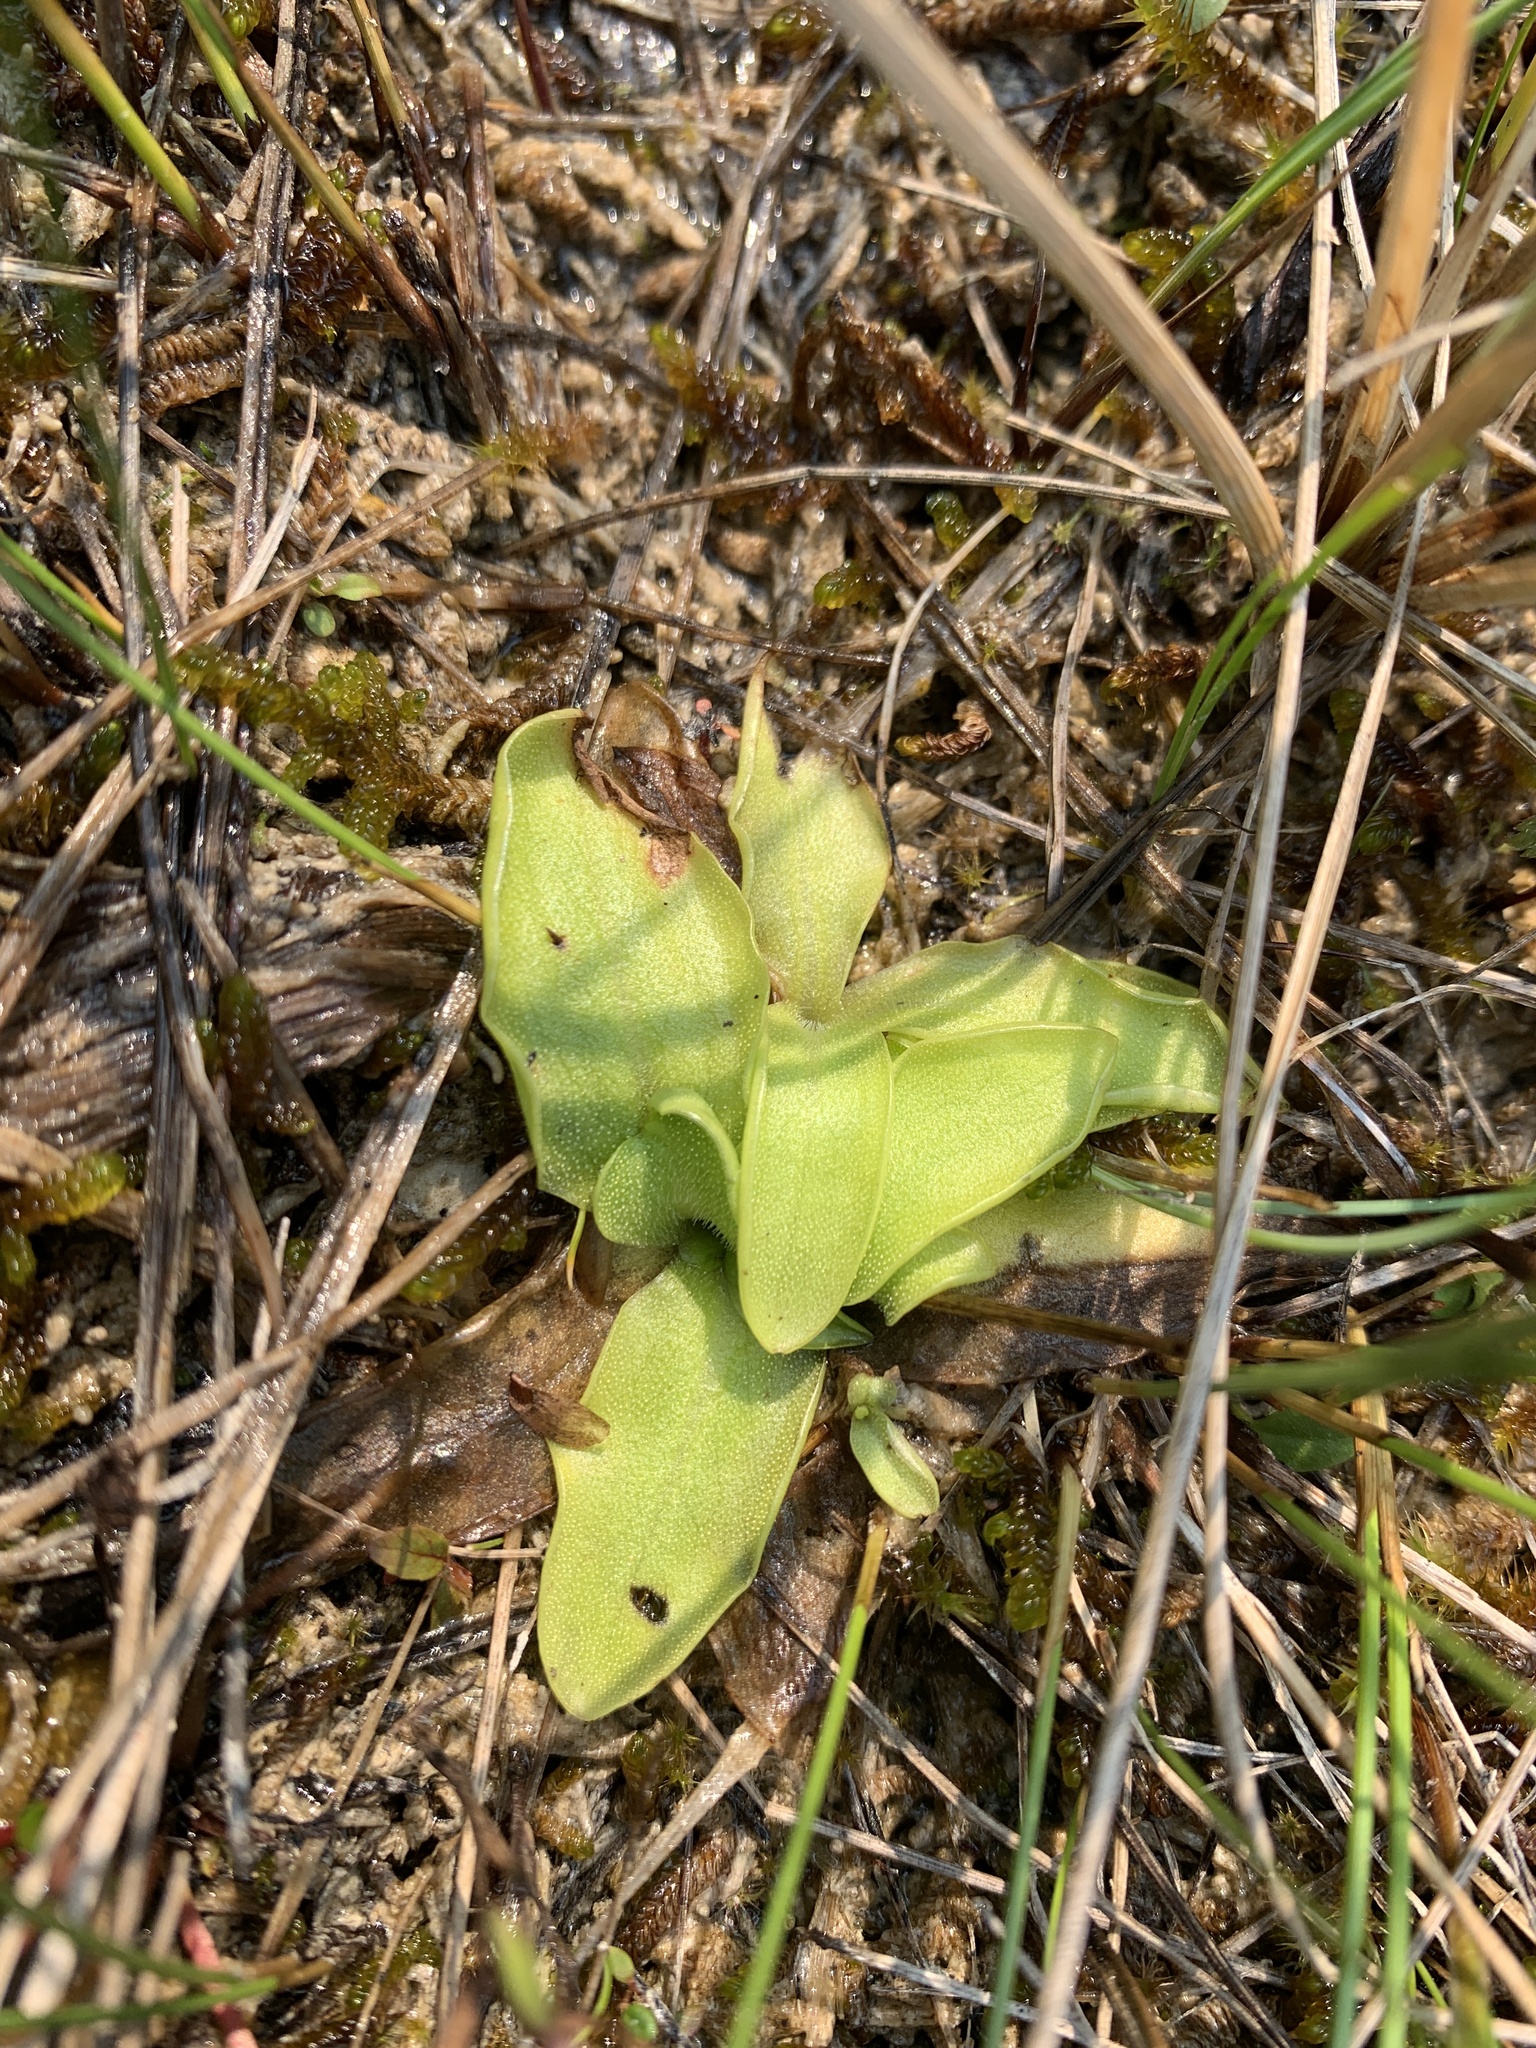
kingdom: Plantae
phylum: Tracheophyta
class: Magnoliopsida
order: Lamiales
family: Lentibulariaceae
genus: Pinguicula
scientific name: Pinguicula vulgaris
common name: Common butterwort
